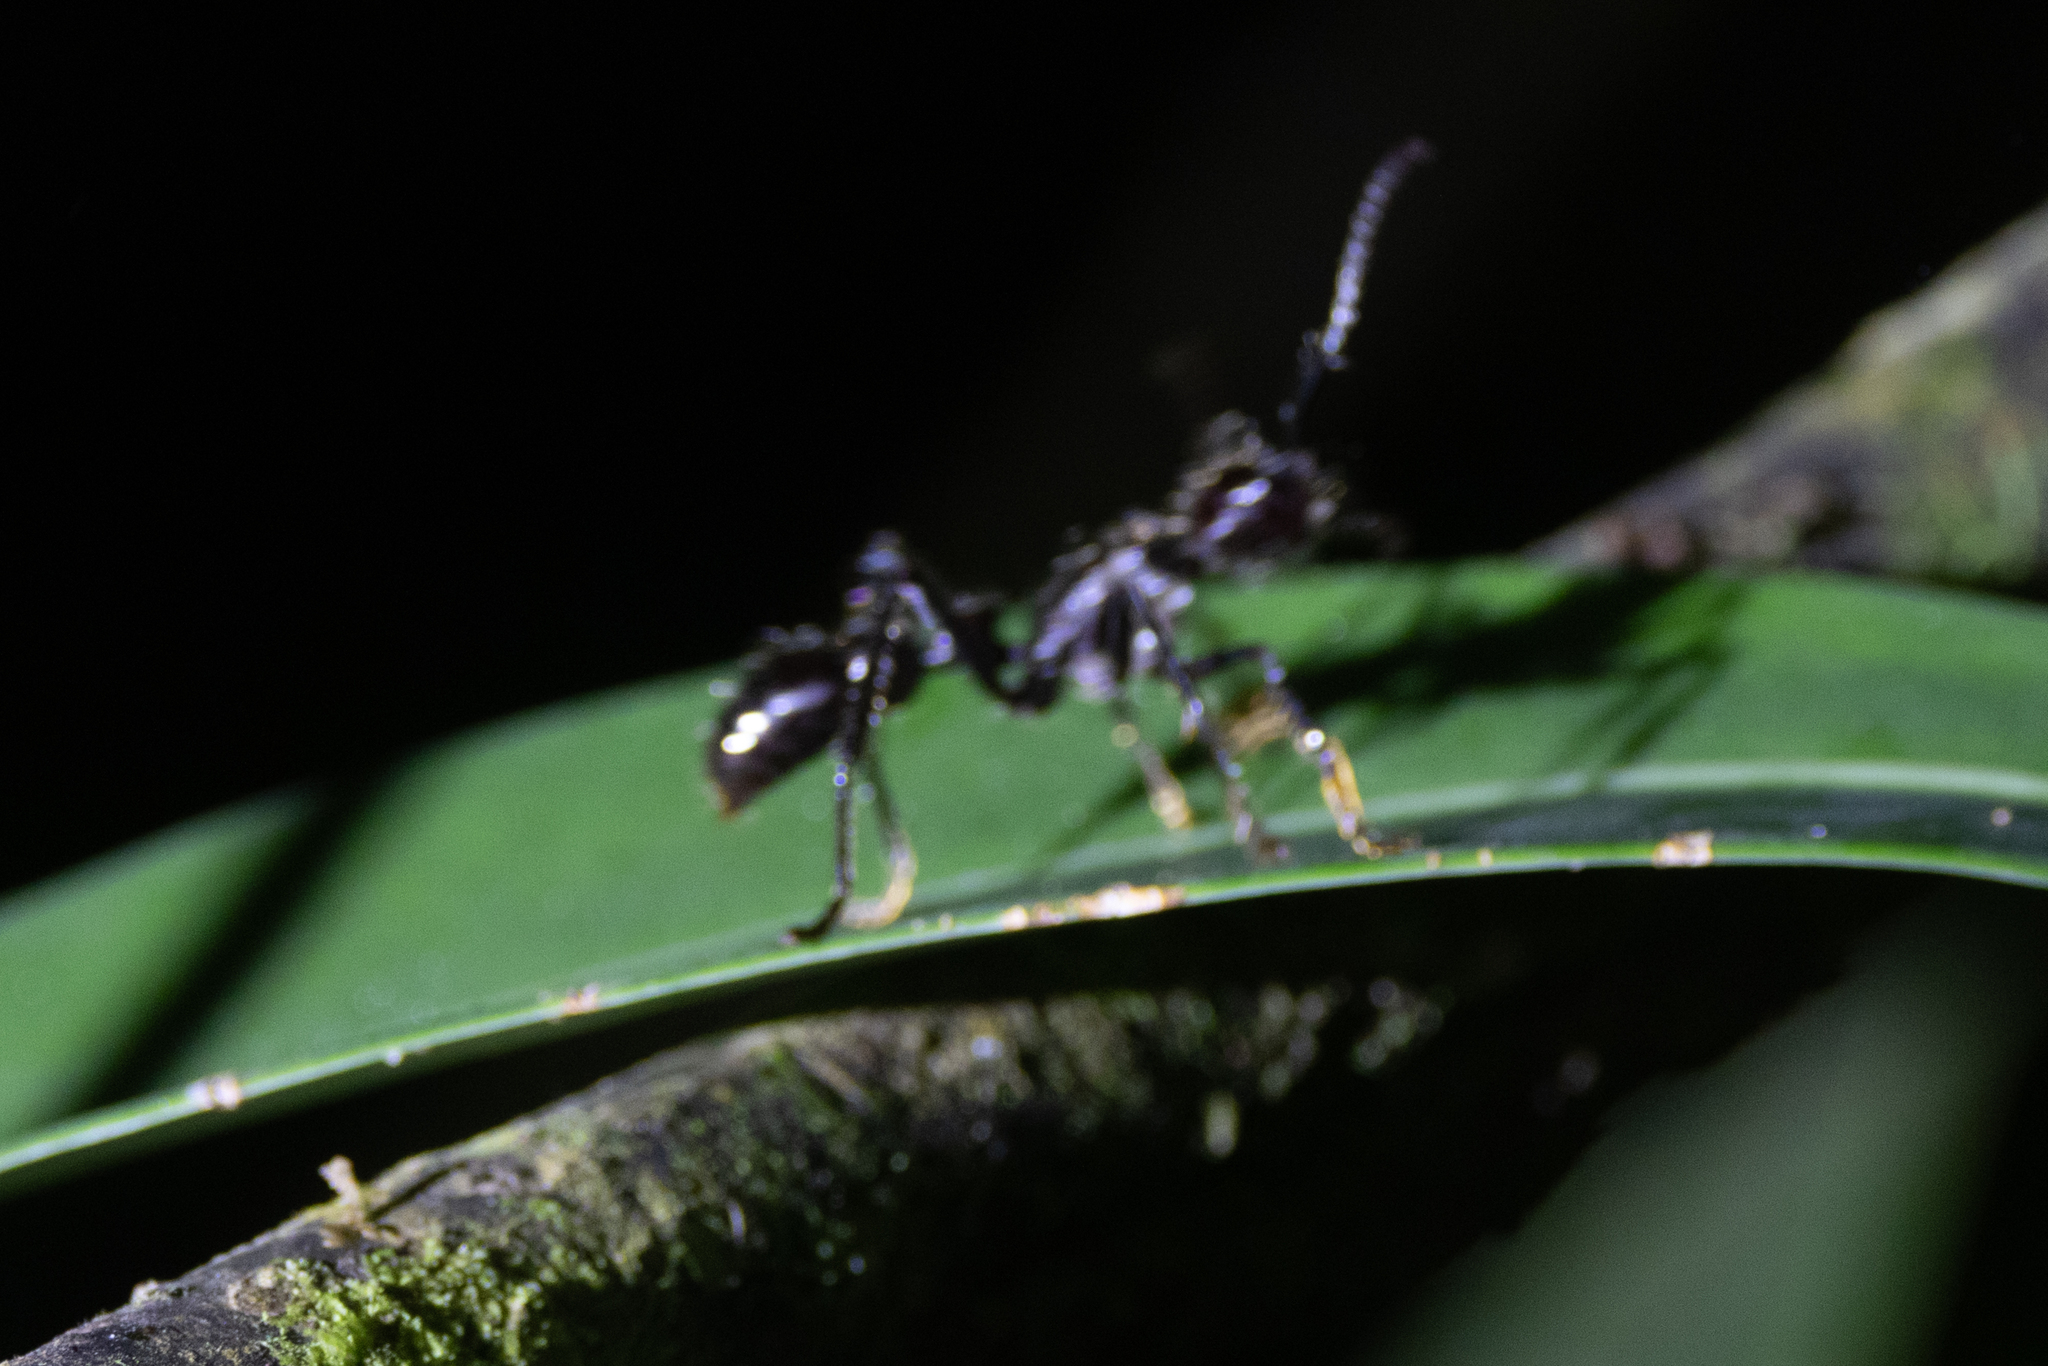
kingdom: Animalia
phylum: Arthropoda
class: Insecta
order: Hymenoptera
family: Formicidae
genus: Paraponera
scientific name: Paraponera clavata
